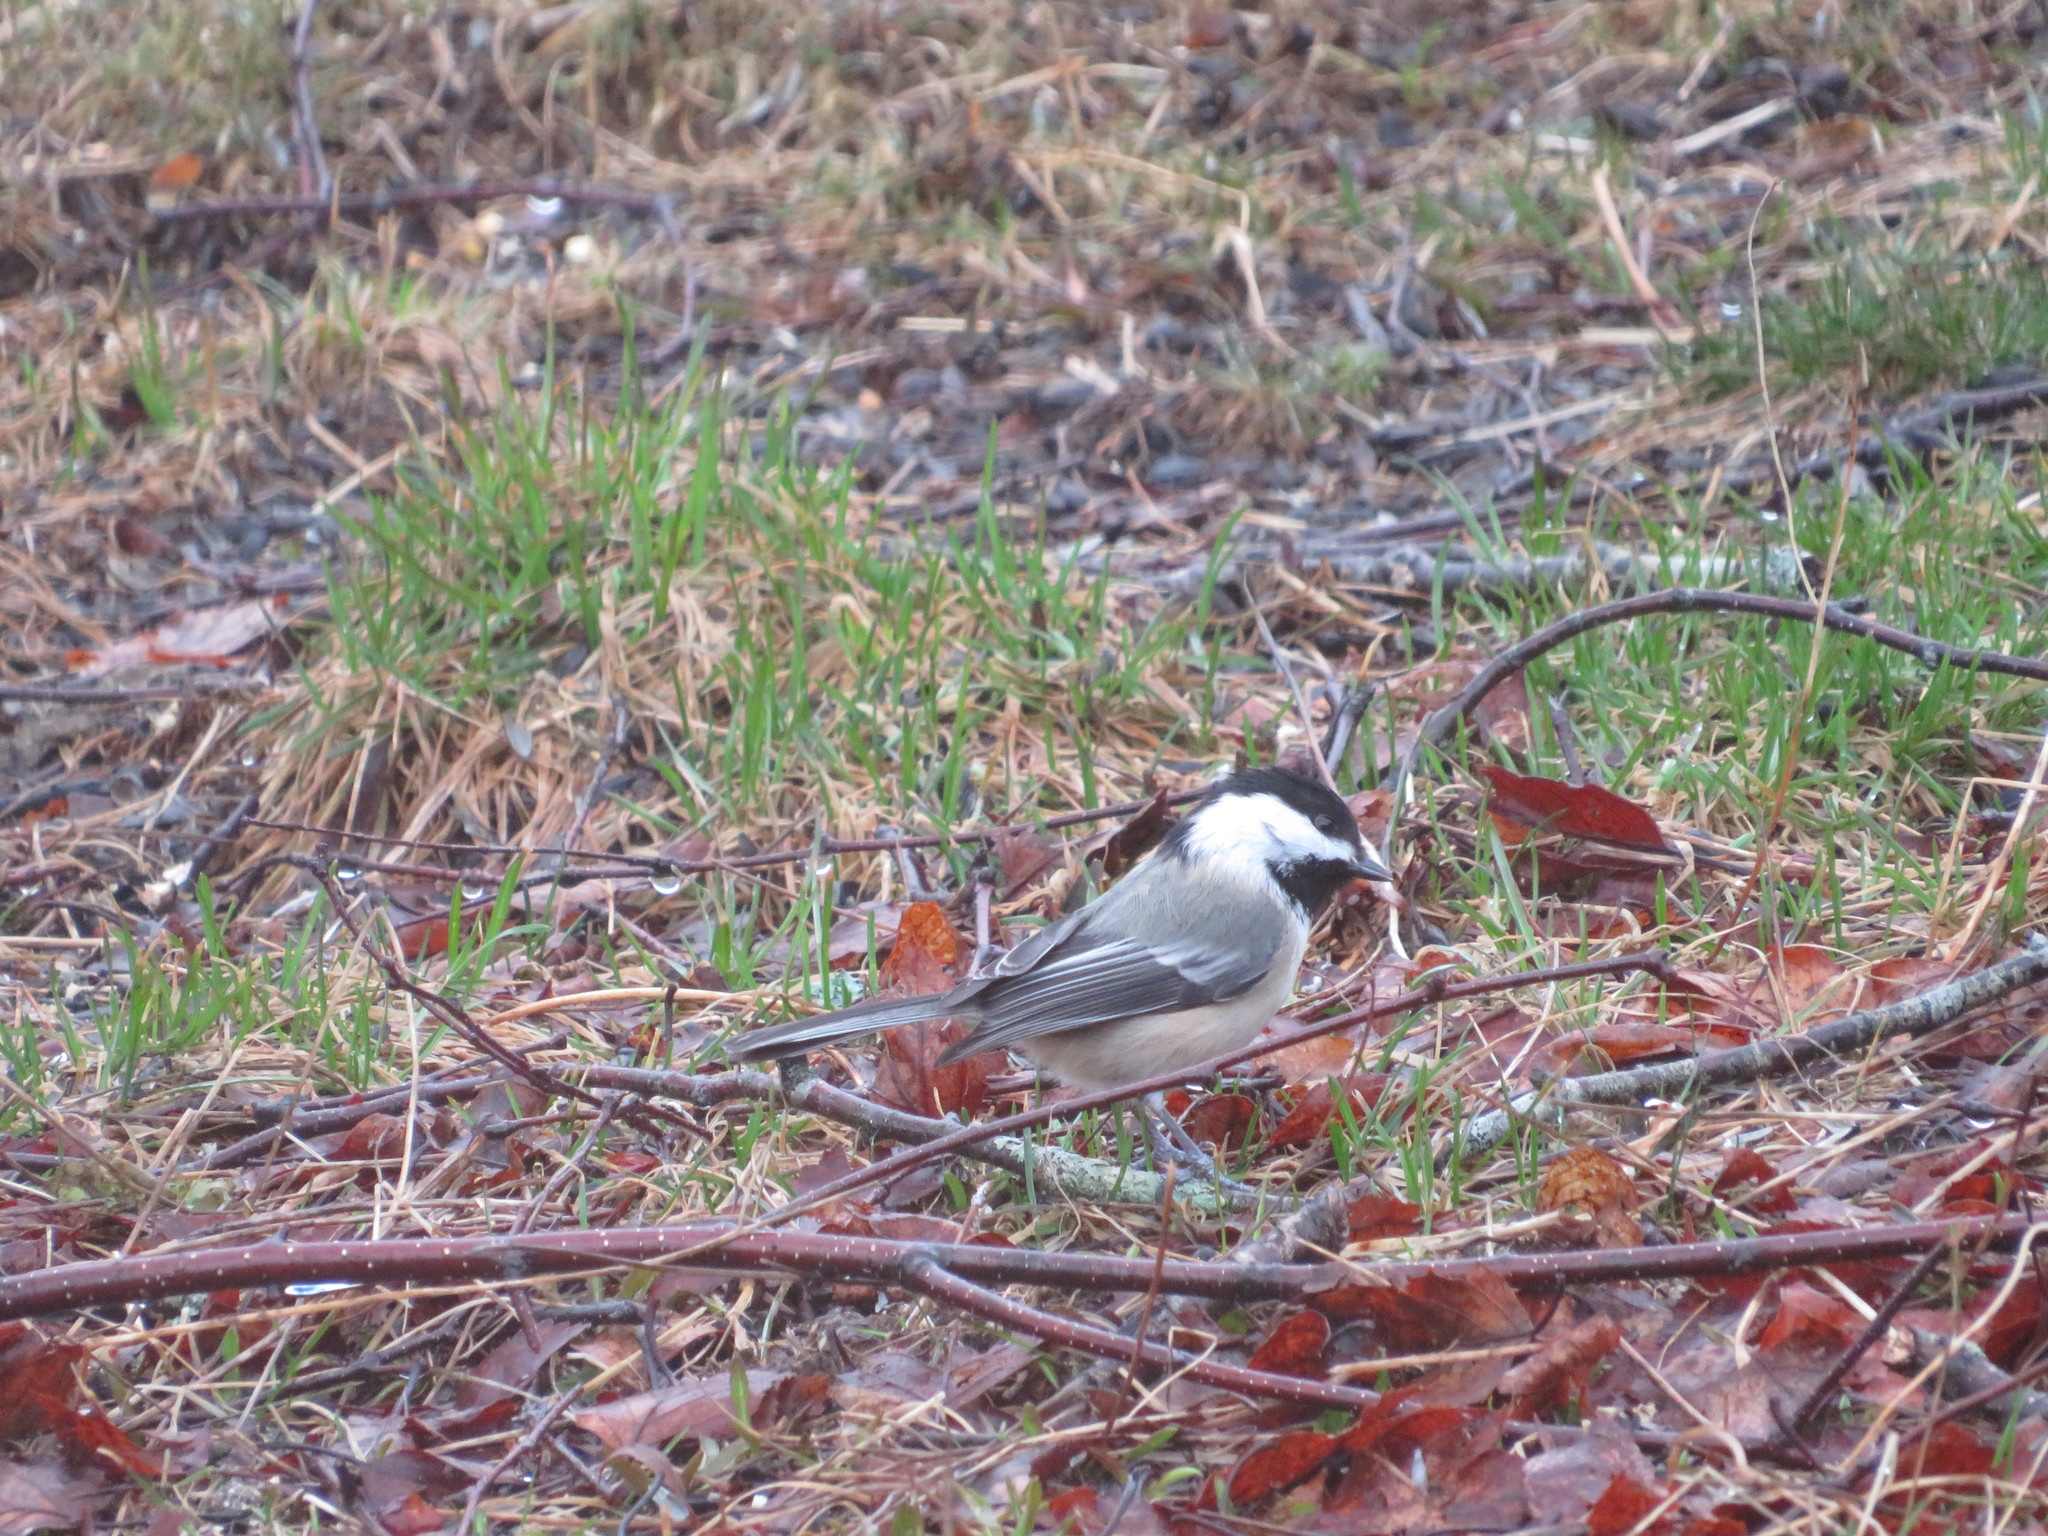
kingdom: Animalia
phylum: Chordata
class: Aves
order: Passeriformes
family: Paridae
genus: Poecile
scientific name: Poecile atricapillus
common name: Black-capped chickadee
